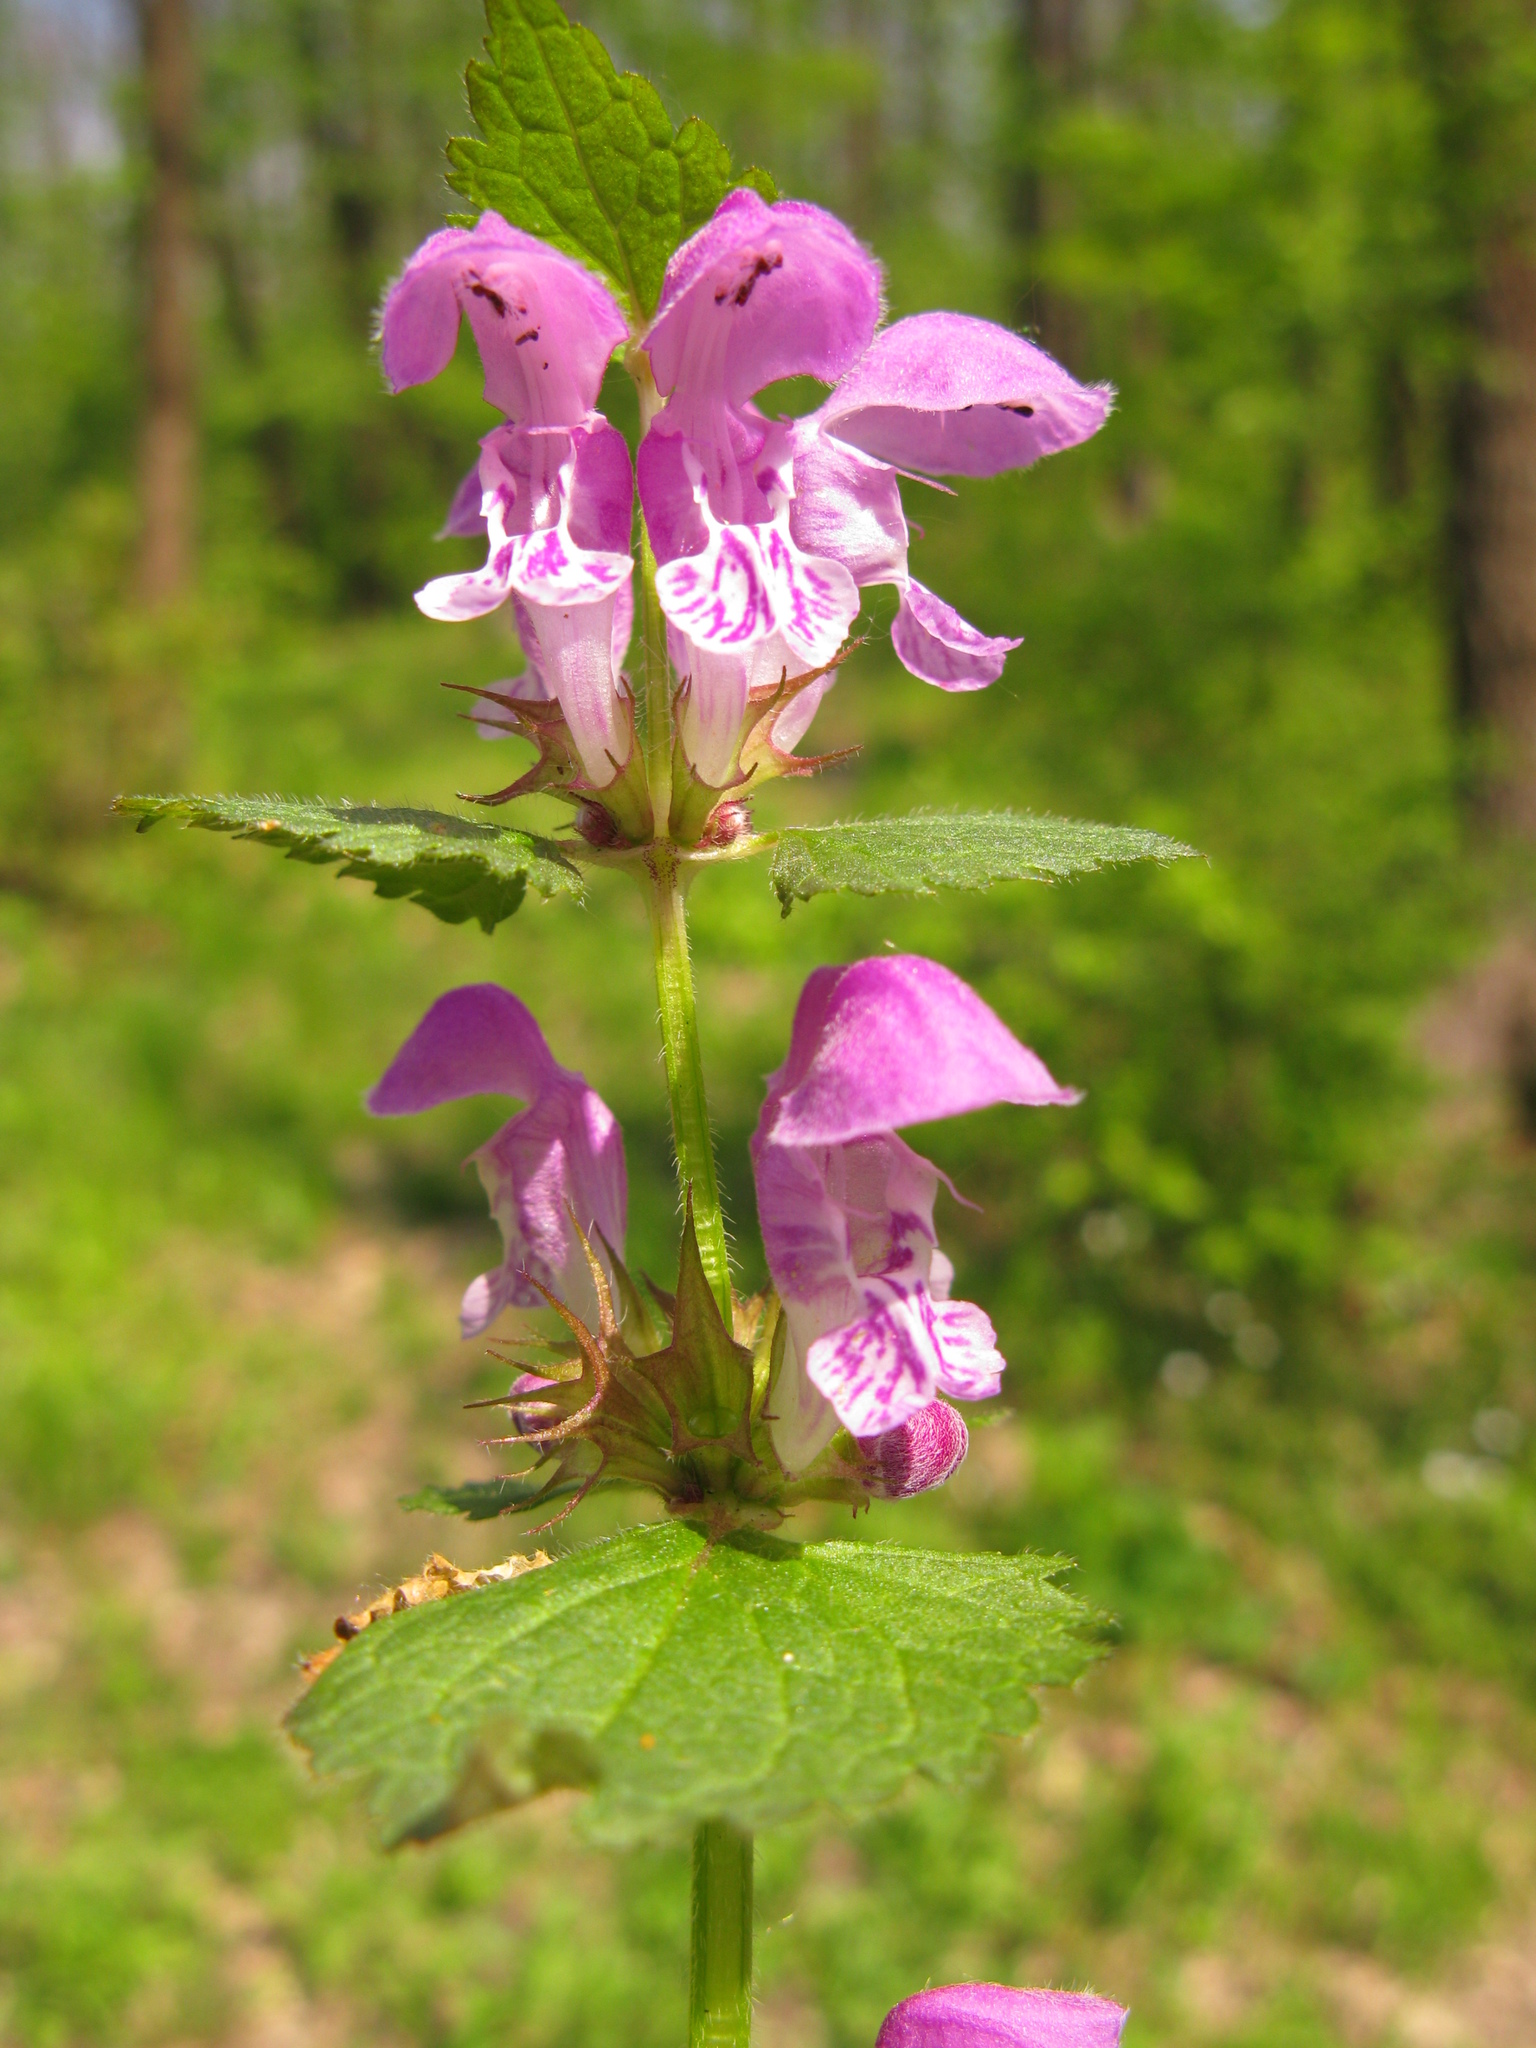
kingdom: Plantae
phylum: Tracheophyta
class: Magnoliopsida
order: Lamiales
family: Lamiaceae
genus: Lamium
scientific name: Lamium maculatum
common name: Spotted dead-nettle
